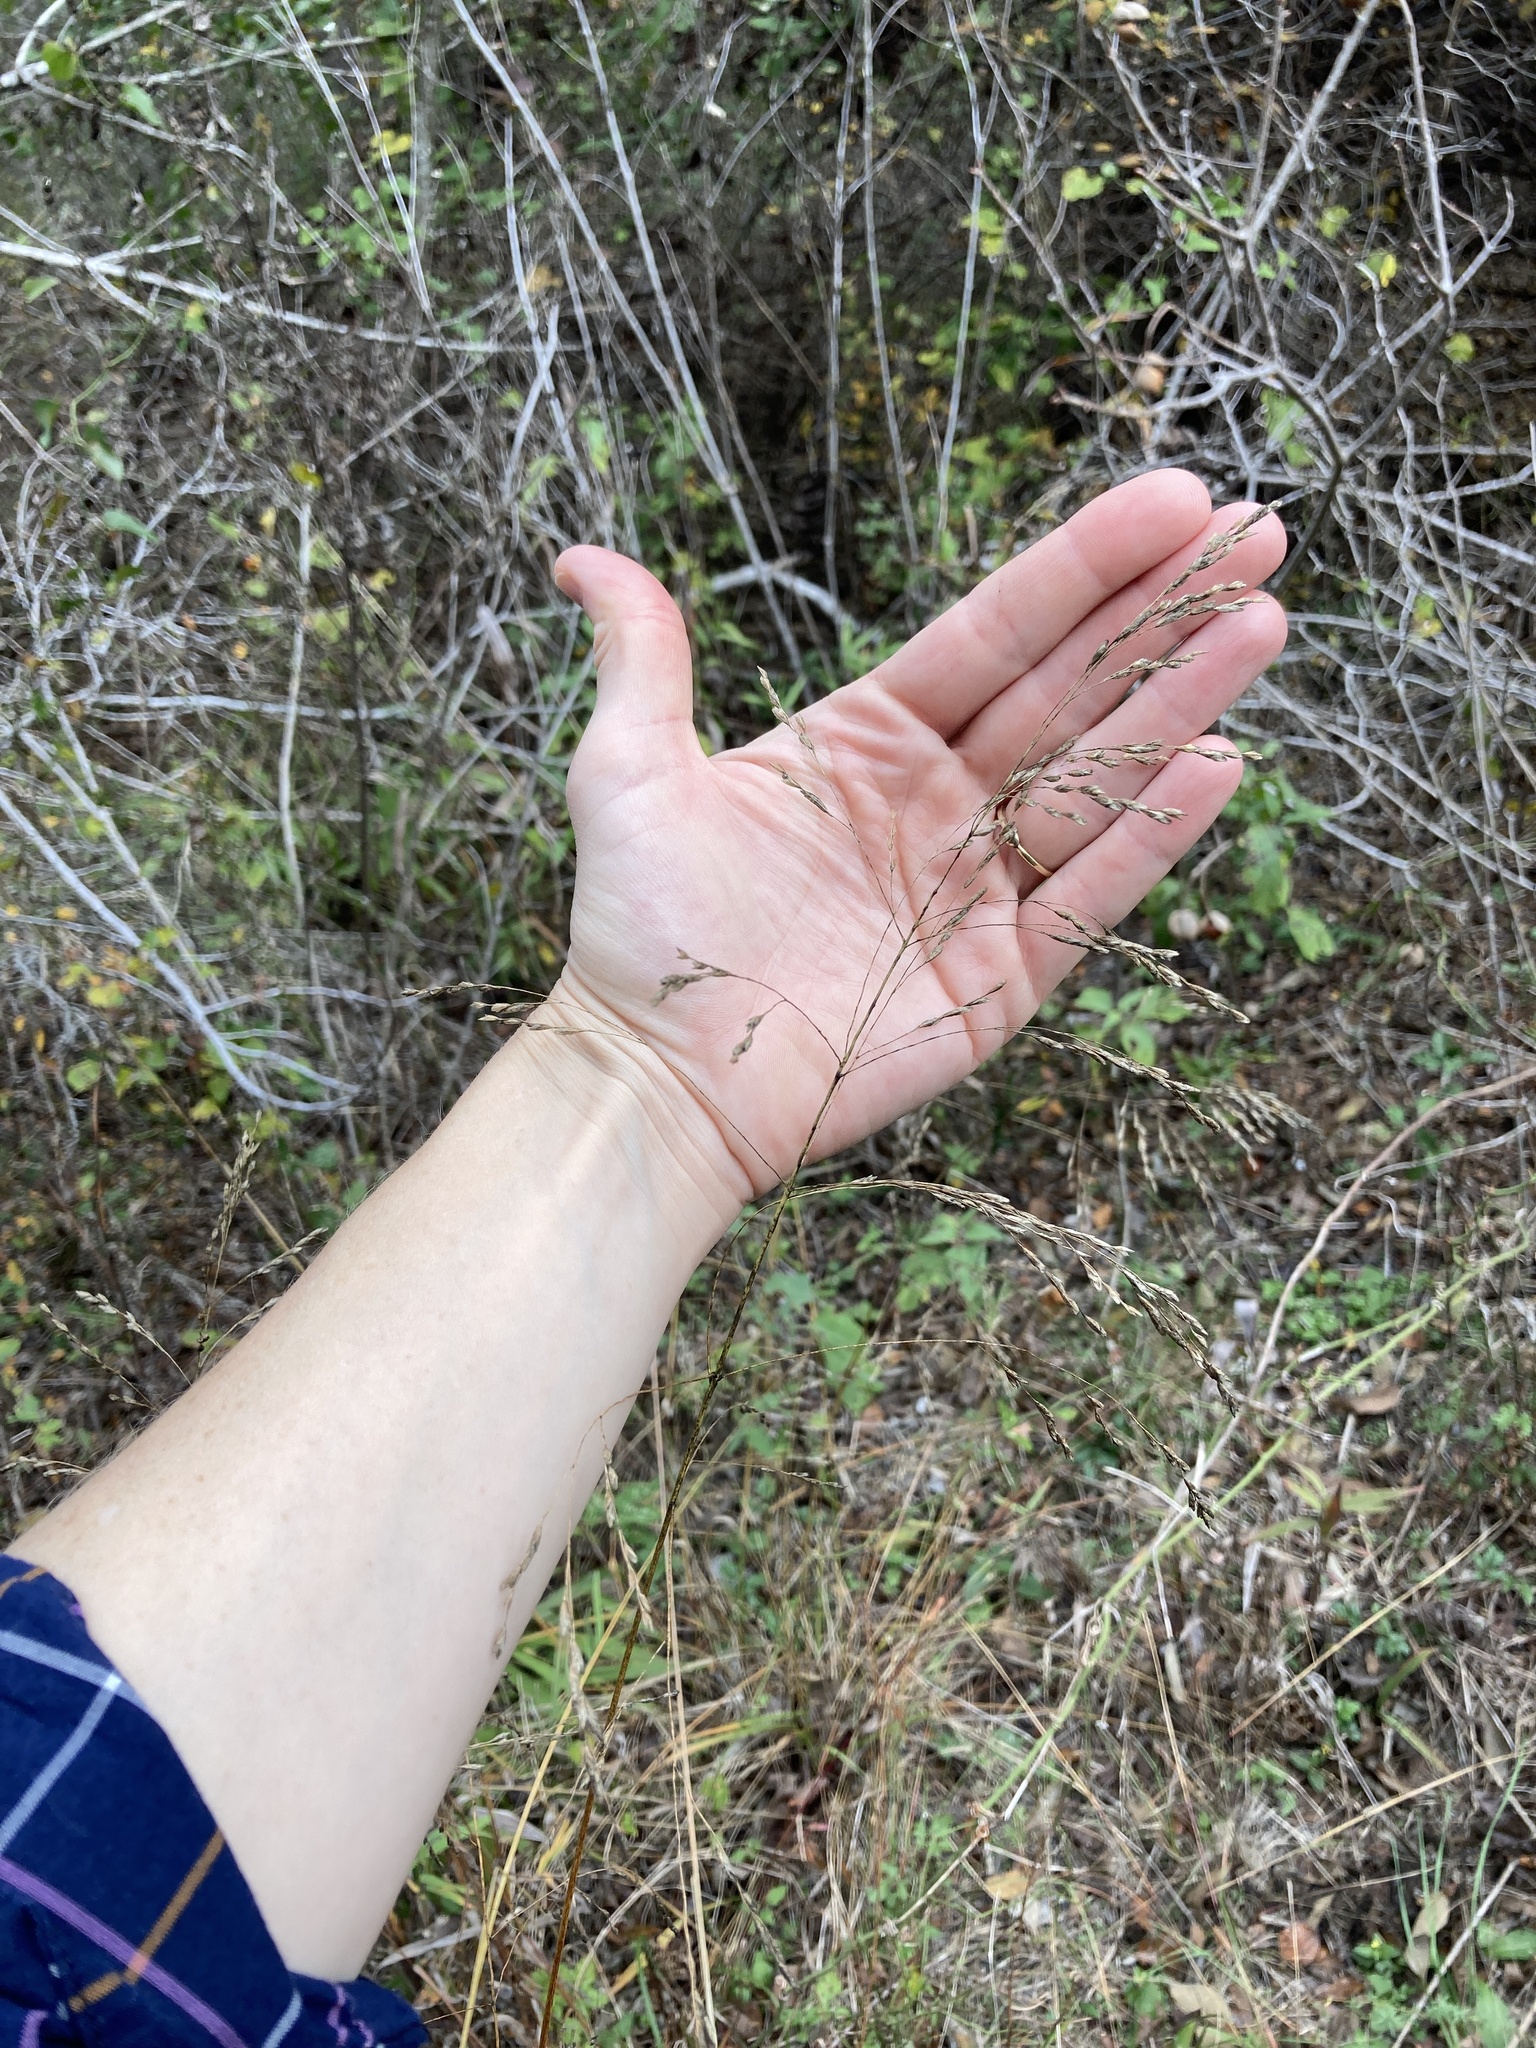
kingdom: Plantae
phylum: Tracheophyta
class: Liliopsida
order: Poales
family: Poaceae
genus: Tridens
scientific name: Tridens flavus
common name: Purpletop
